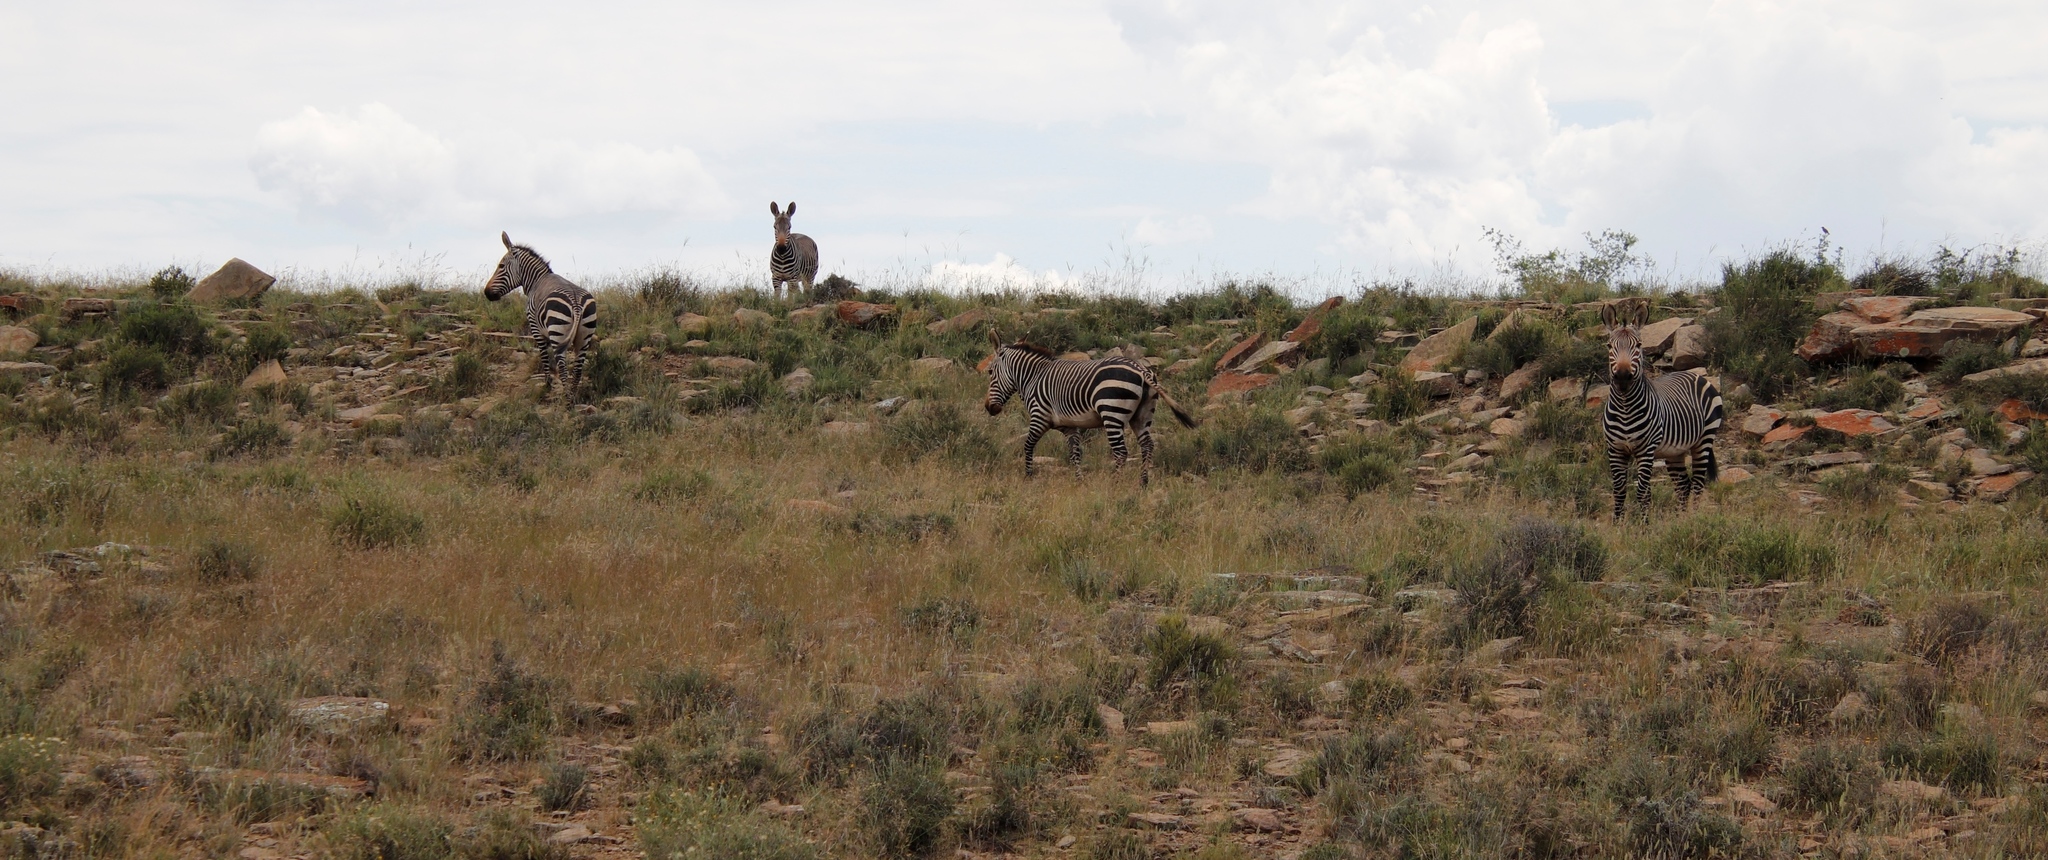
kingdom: Animalia
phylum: Chordata
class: Mammalia
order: Perissodactyla
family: Equidae
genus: Equus
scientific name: Equus zebra
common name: Mountain zebra
